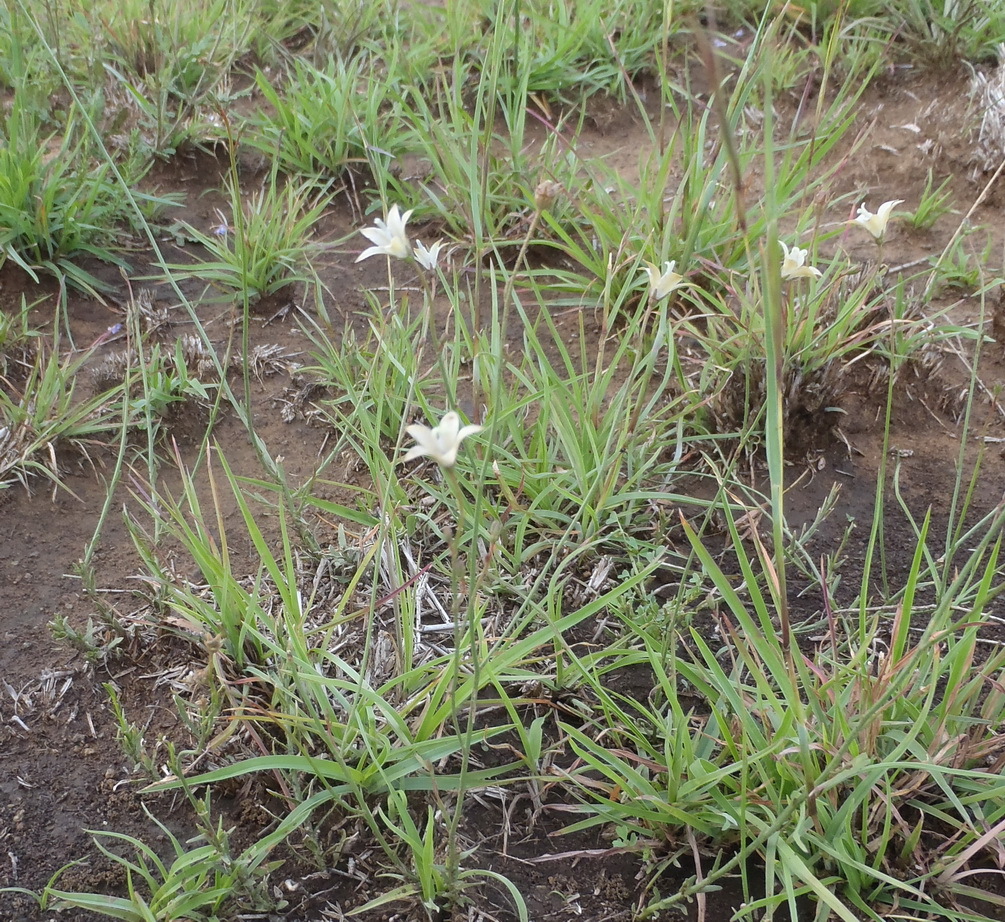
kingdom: Plantae
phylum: Tracheophyta
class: Magnoliopsida
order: Asterales
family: Campanulaceae
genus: Wahlenbergia
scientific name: Wahlenbergia undulata
